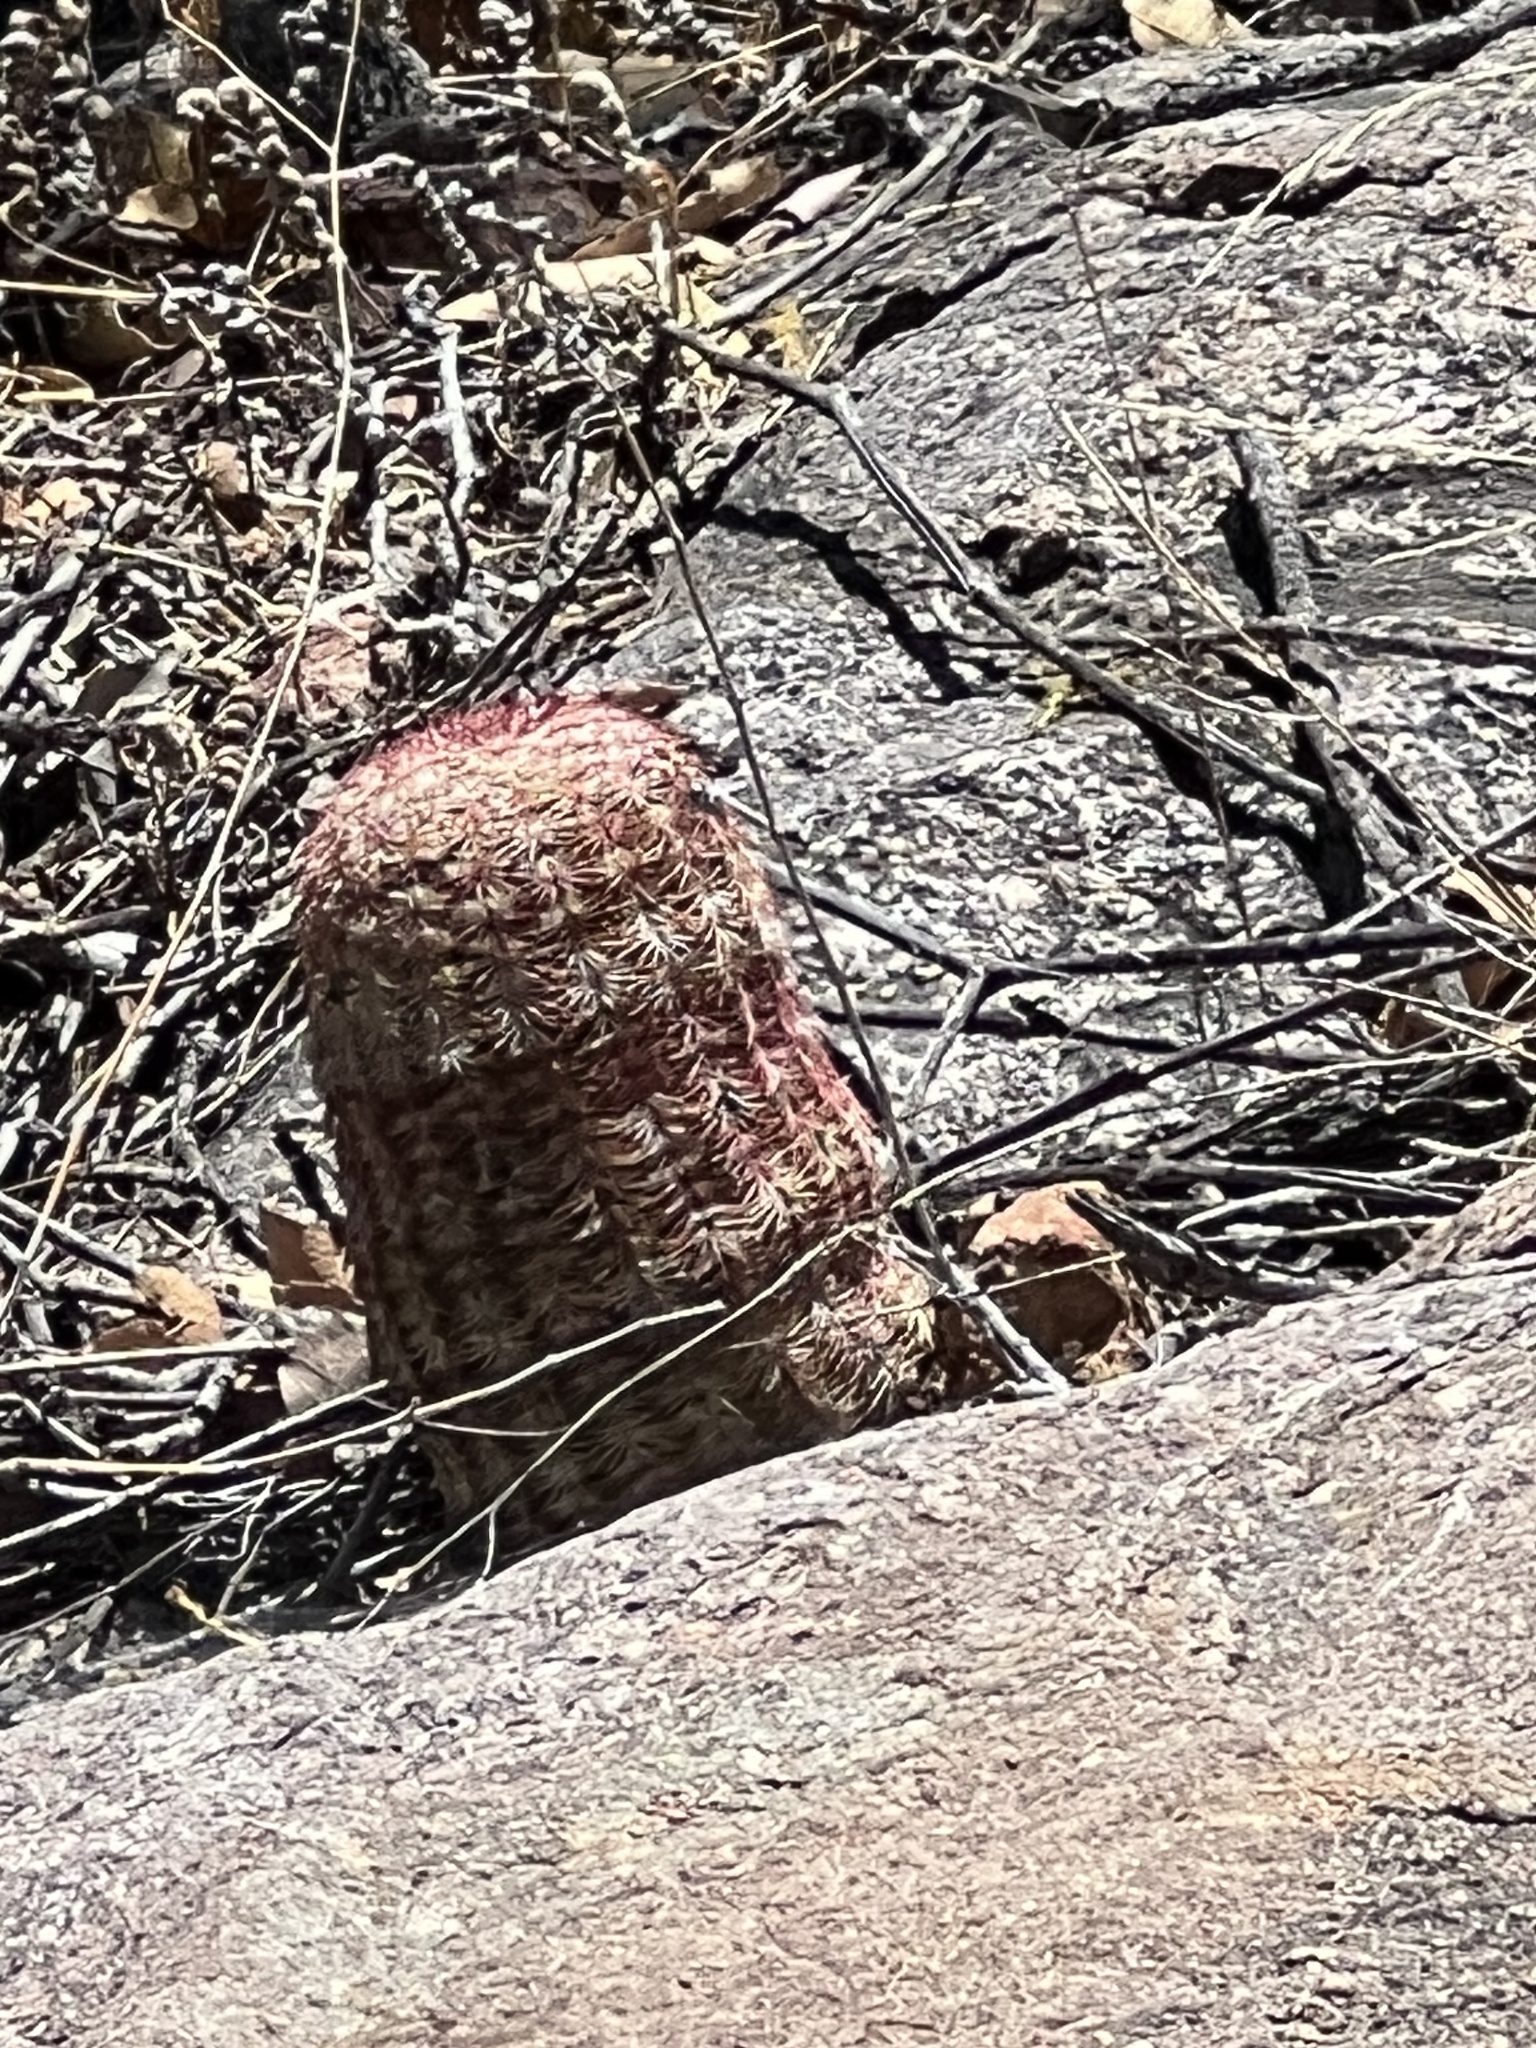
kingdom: Plantae
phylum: Tracheophyta
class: Magnoliopsida
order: Caryophyllales
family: Cactaceae
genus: Echinocereus
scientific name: Echinocereus rigidissimus
